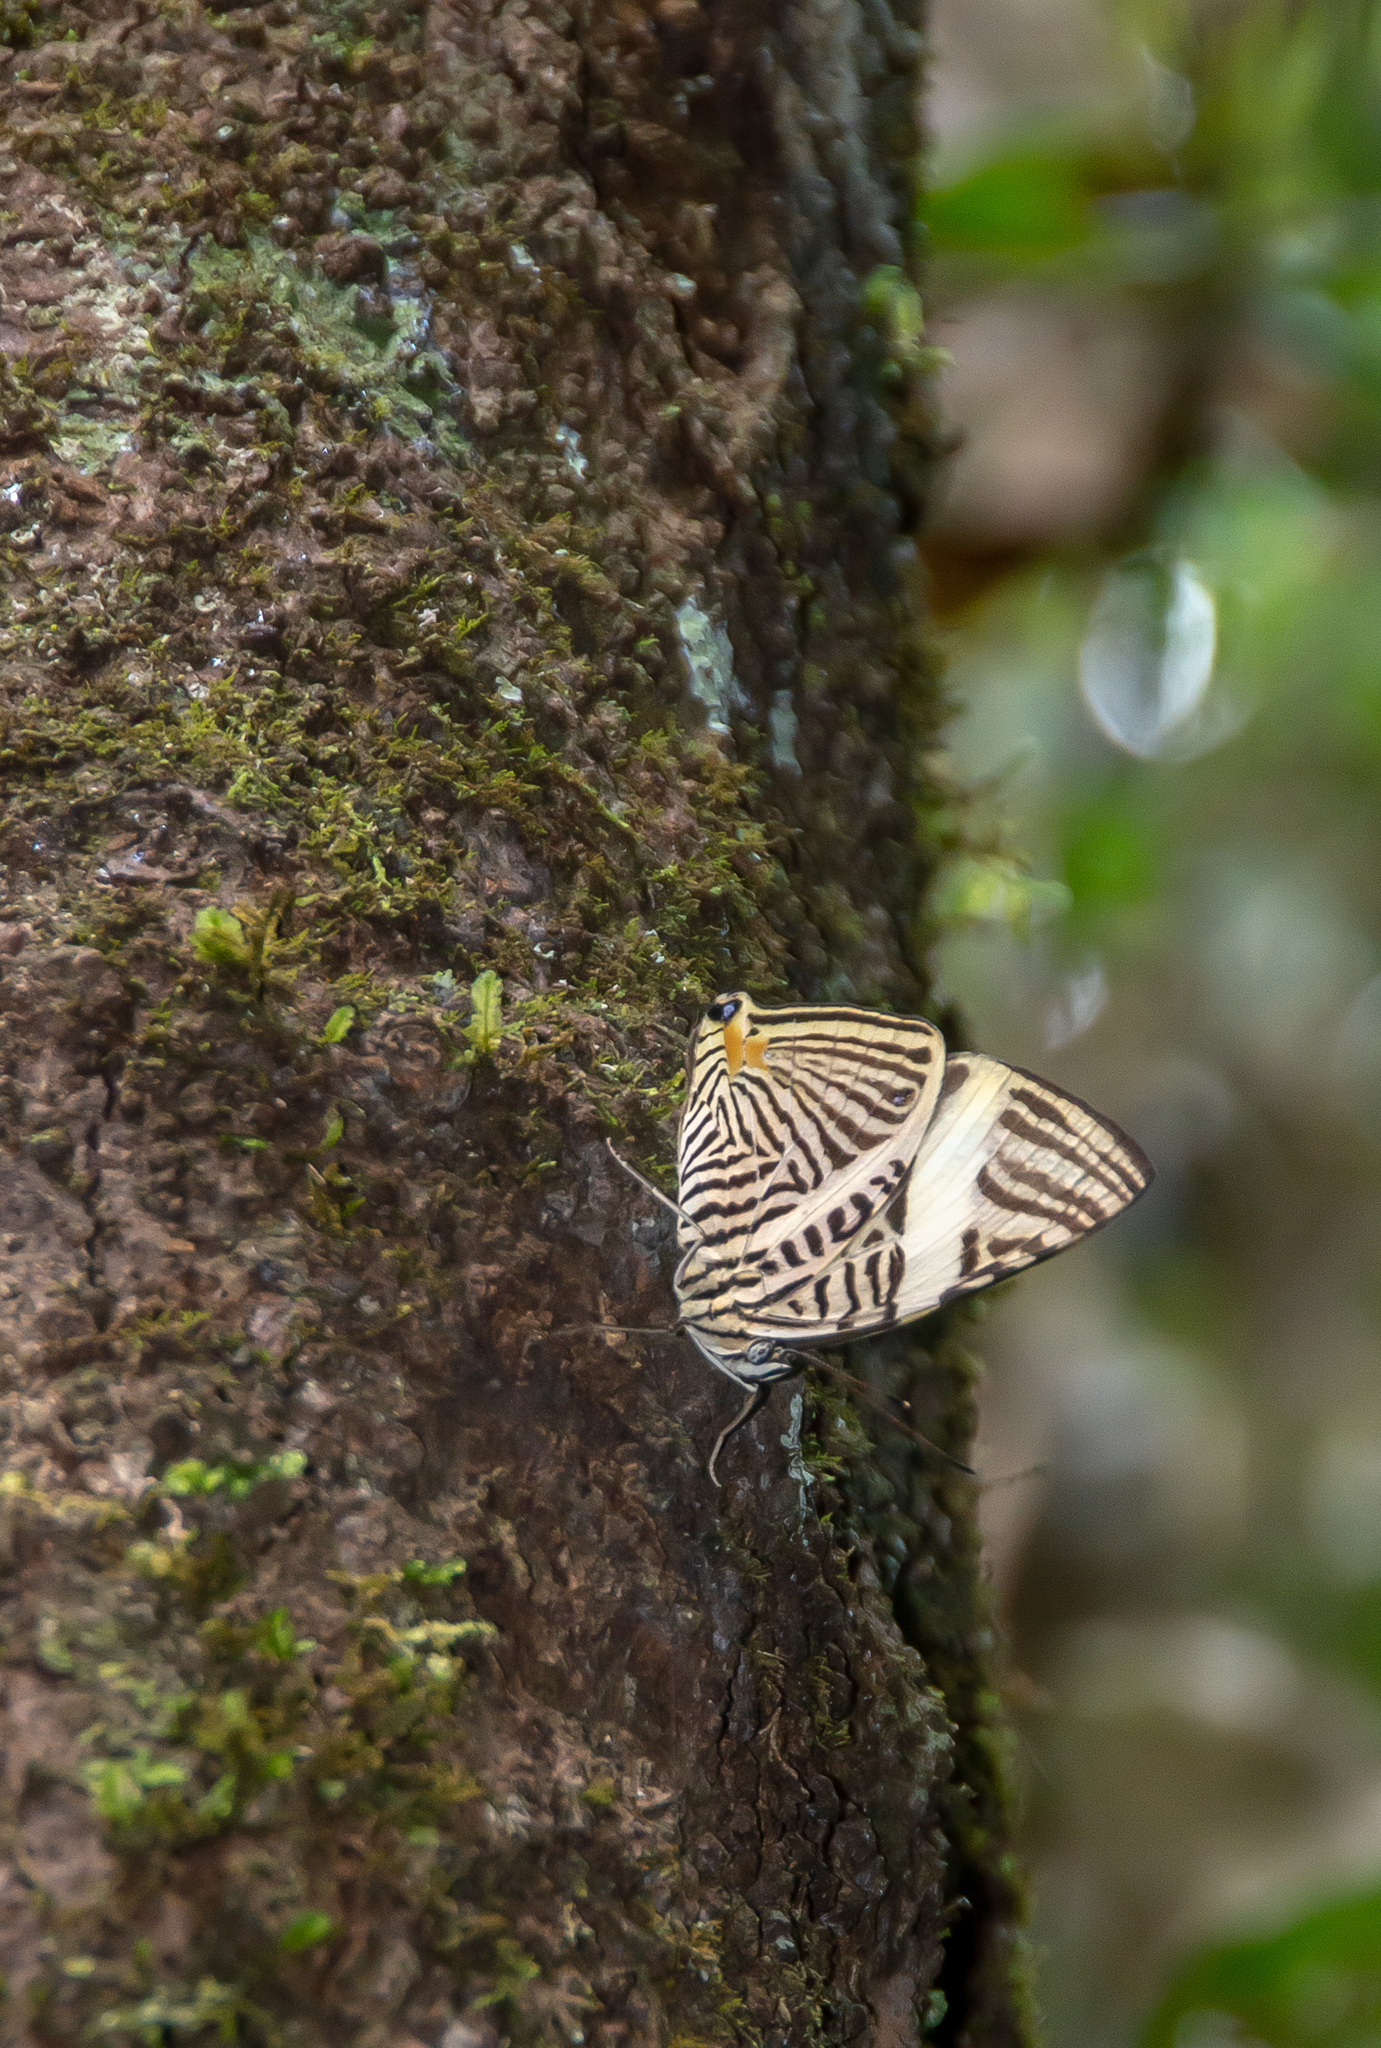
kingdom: Animalia
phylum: Arthropoda
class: Insecta
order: Lepidoptera
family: Nymphalidae
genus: Colobura
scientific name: Colobura dirce
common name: Dirce beauty
